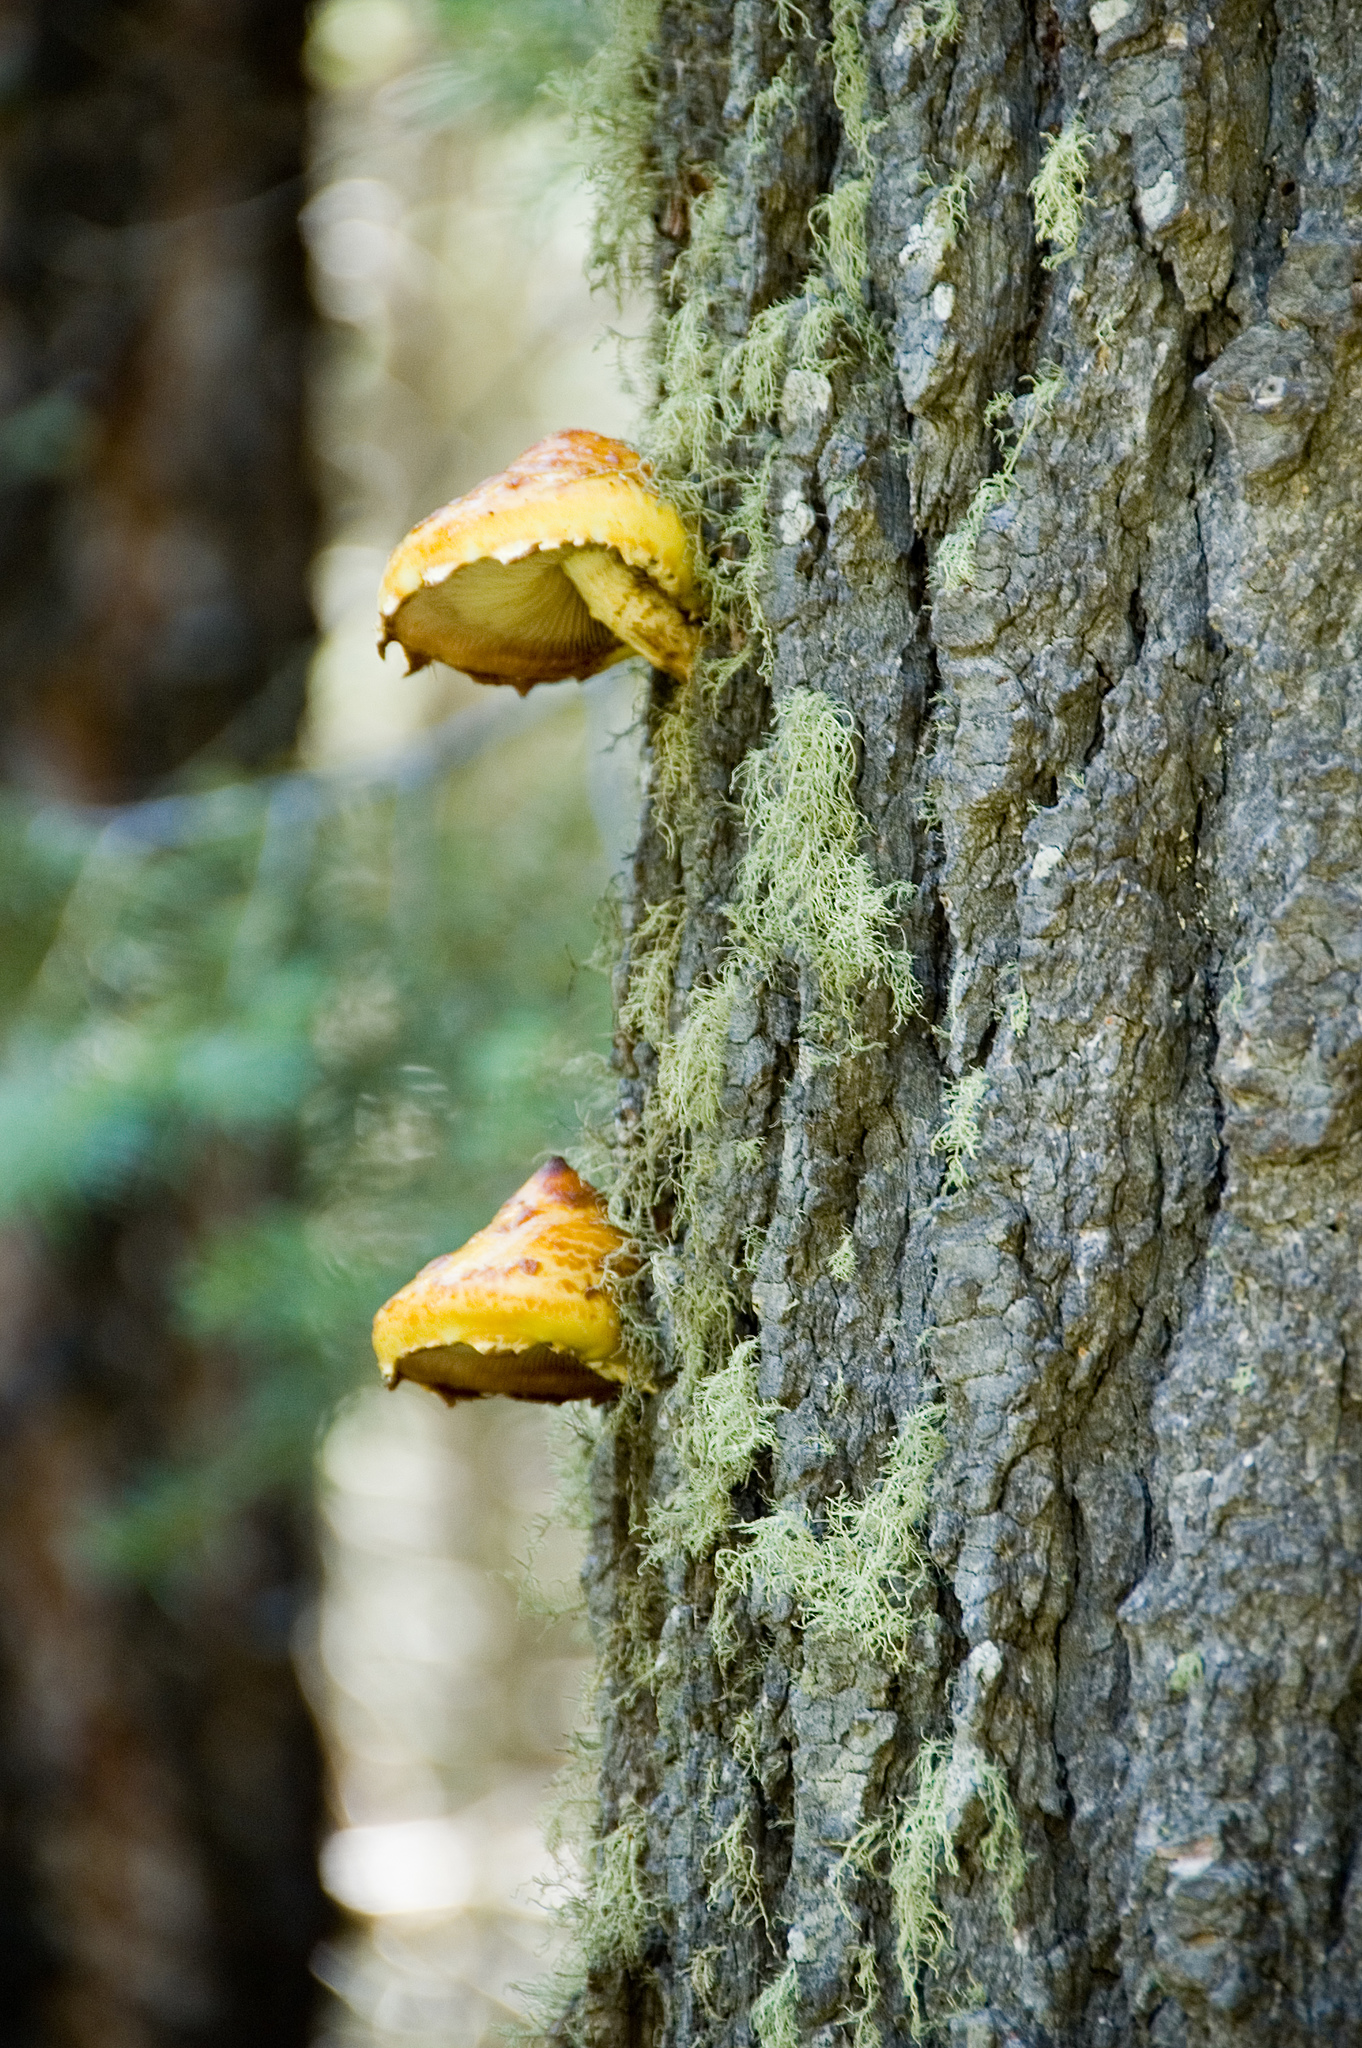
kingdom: Fungi
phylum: Basidiomycota
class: Agaricomycetes
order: Agaricales
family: Strophariaceae
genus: Pholiota
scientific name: Pholiota aurivella
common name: Golden scalycap
